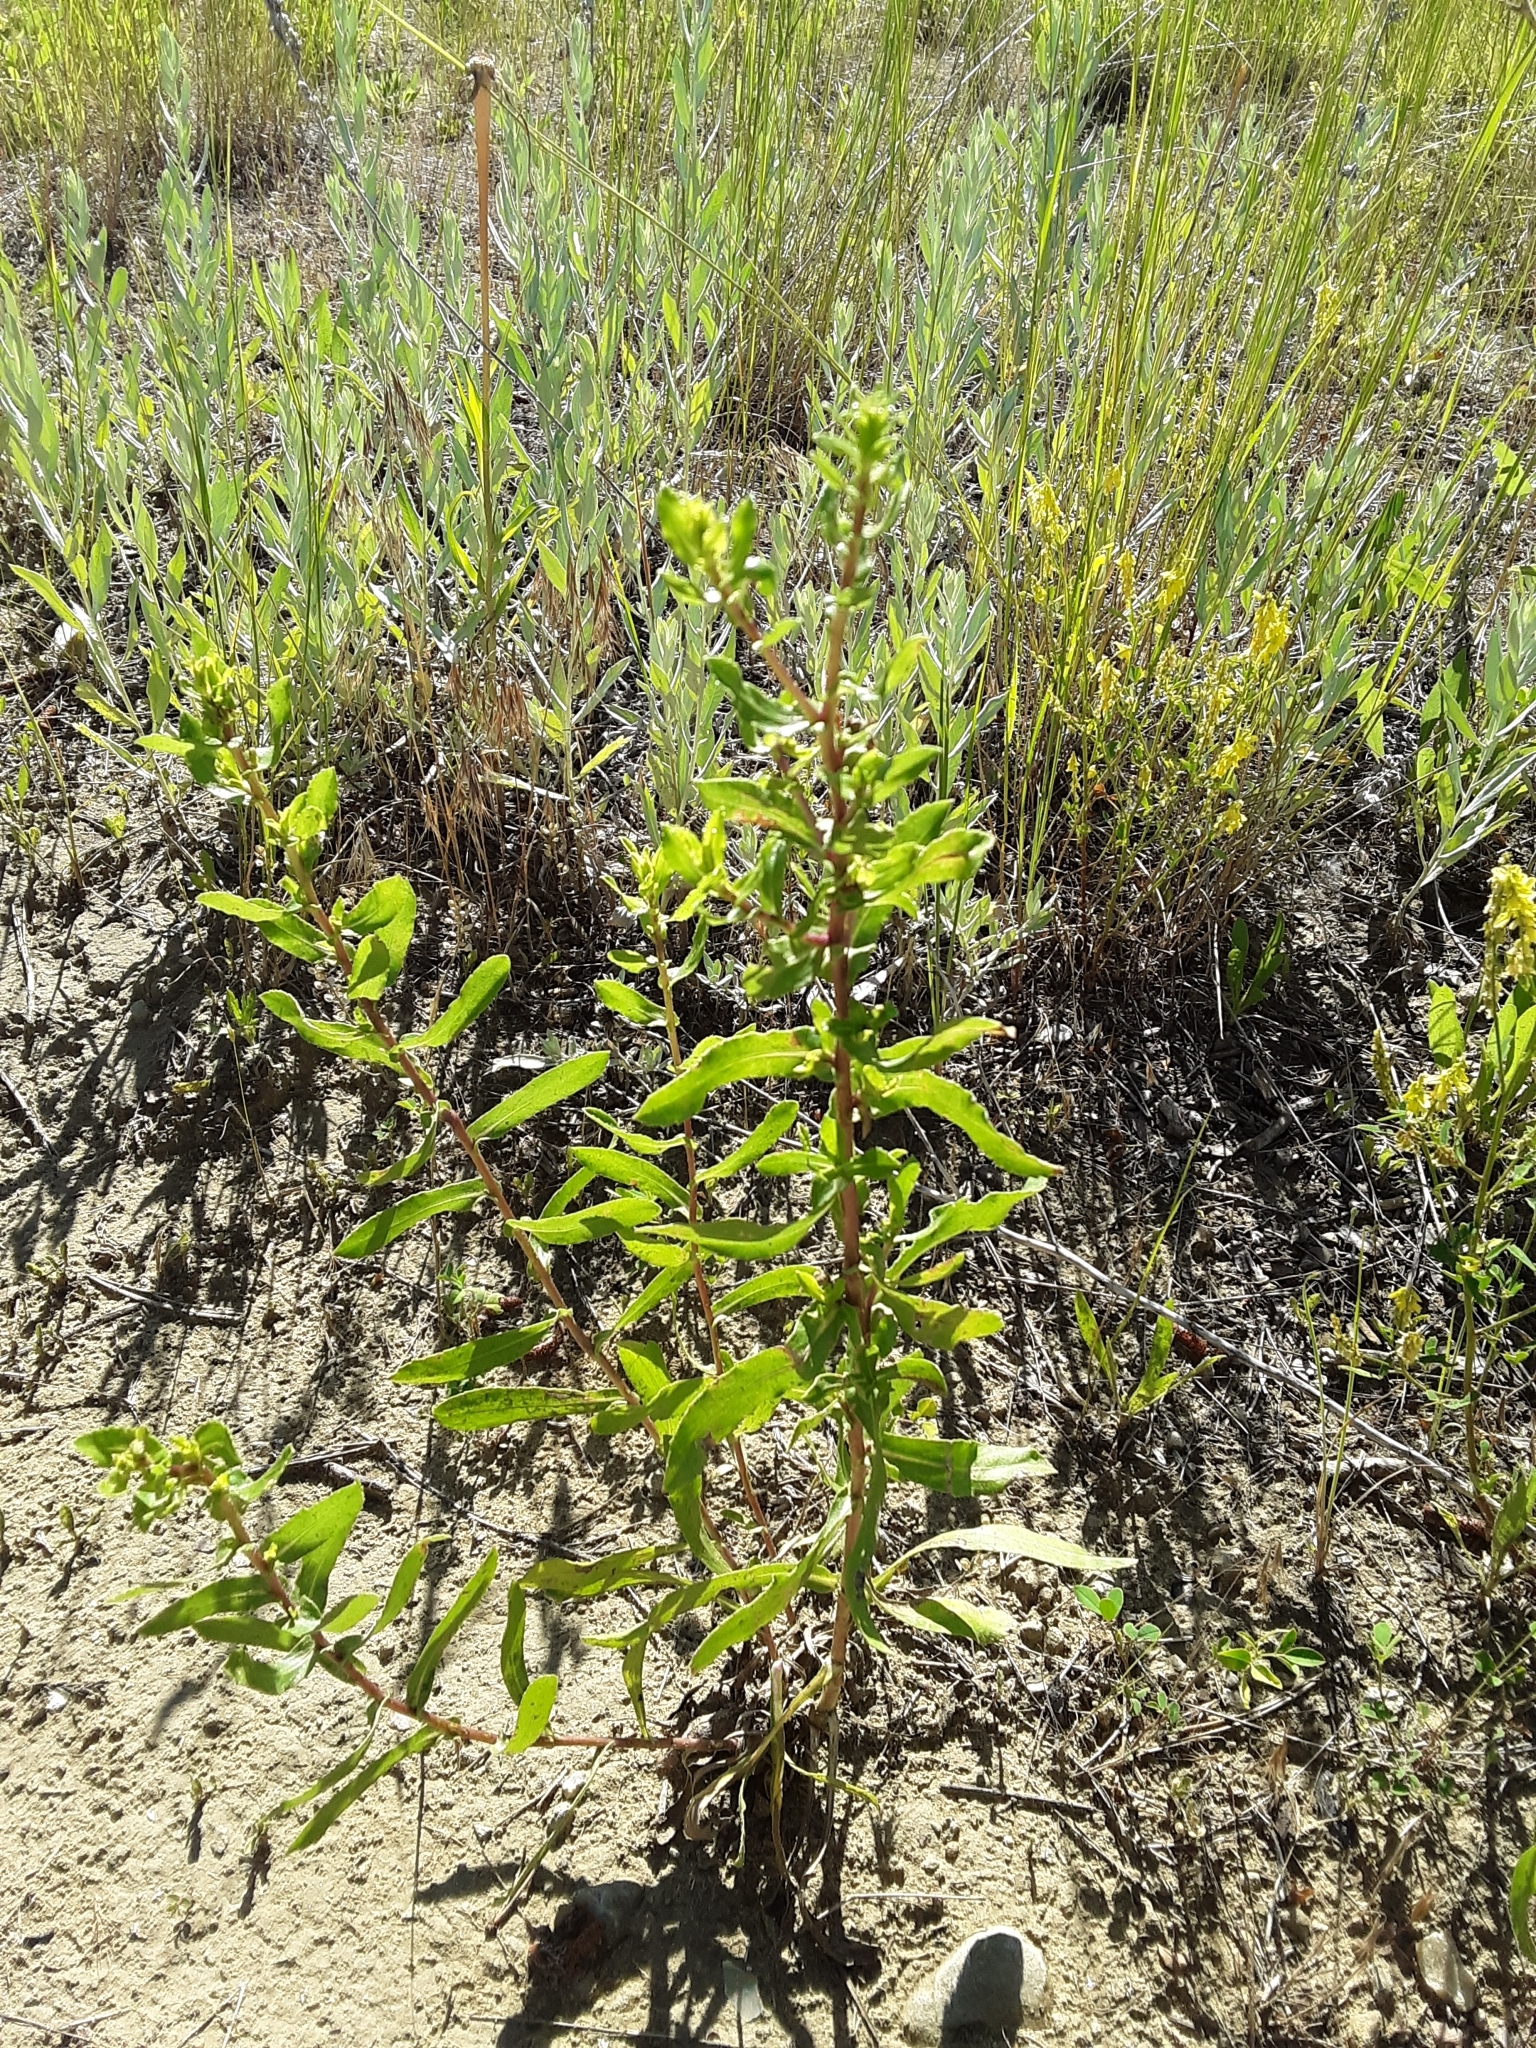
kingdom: Plantae
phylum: Tracheophyta
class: Magnoliopsida
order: Asterales
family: Asteraceae
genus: Grindelia
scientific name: Grindelia squarrosa
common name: Curly-cup gumweed
